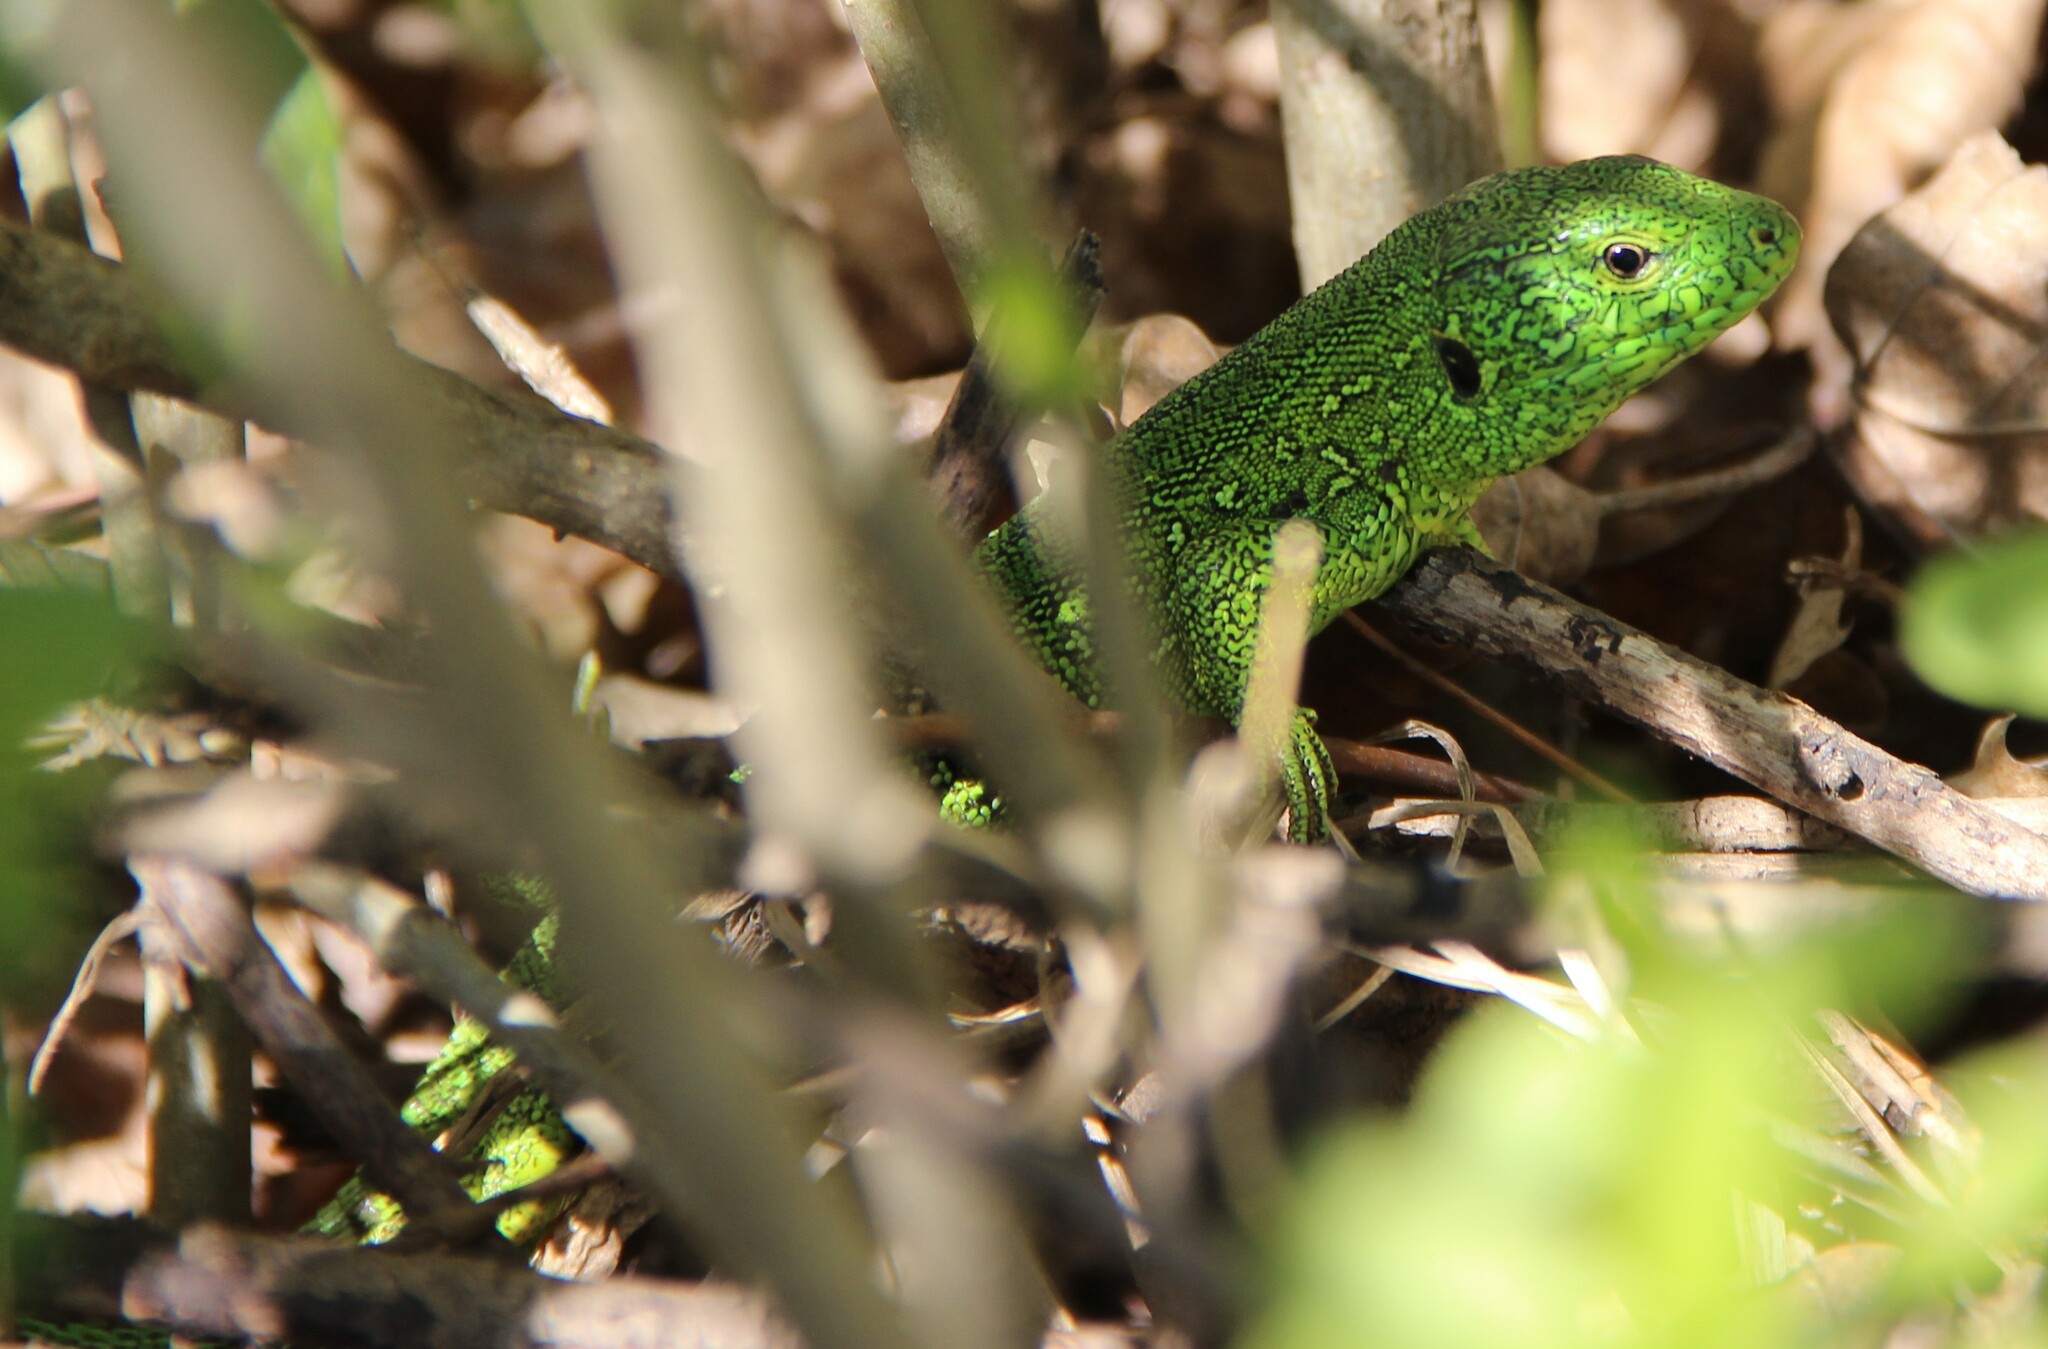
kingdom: Animalia
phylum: Chordata
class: Squamata
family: Lacertidae
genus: Lacerta
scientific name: Lacerta agilis
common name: Sand lizard
